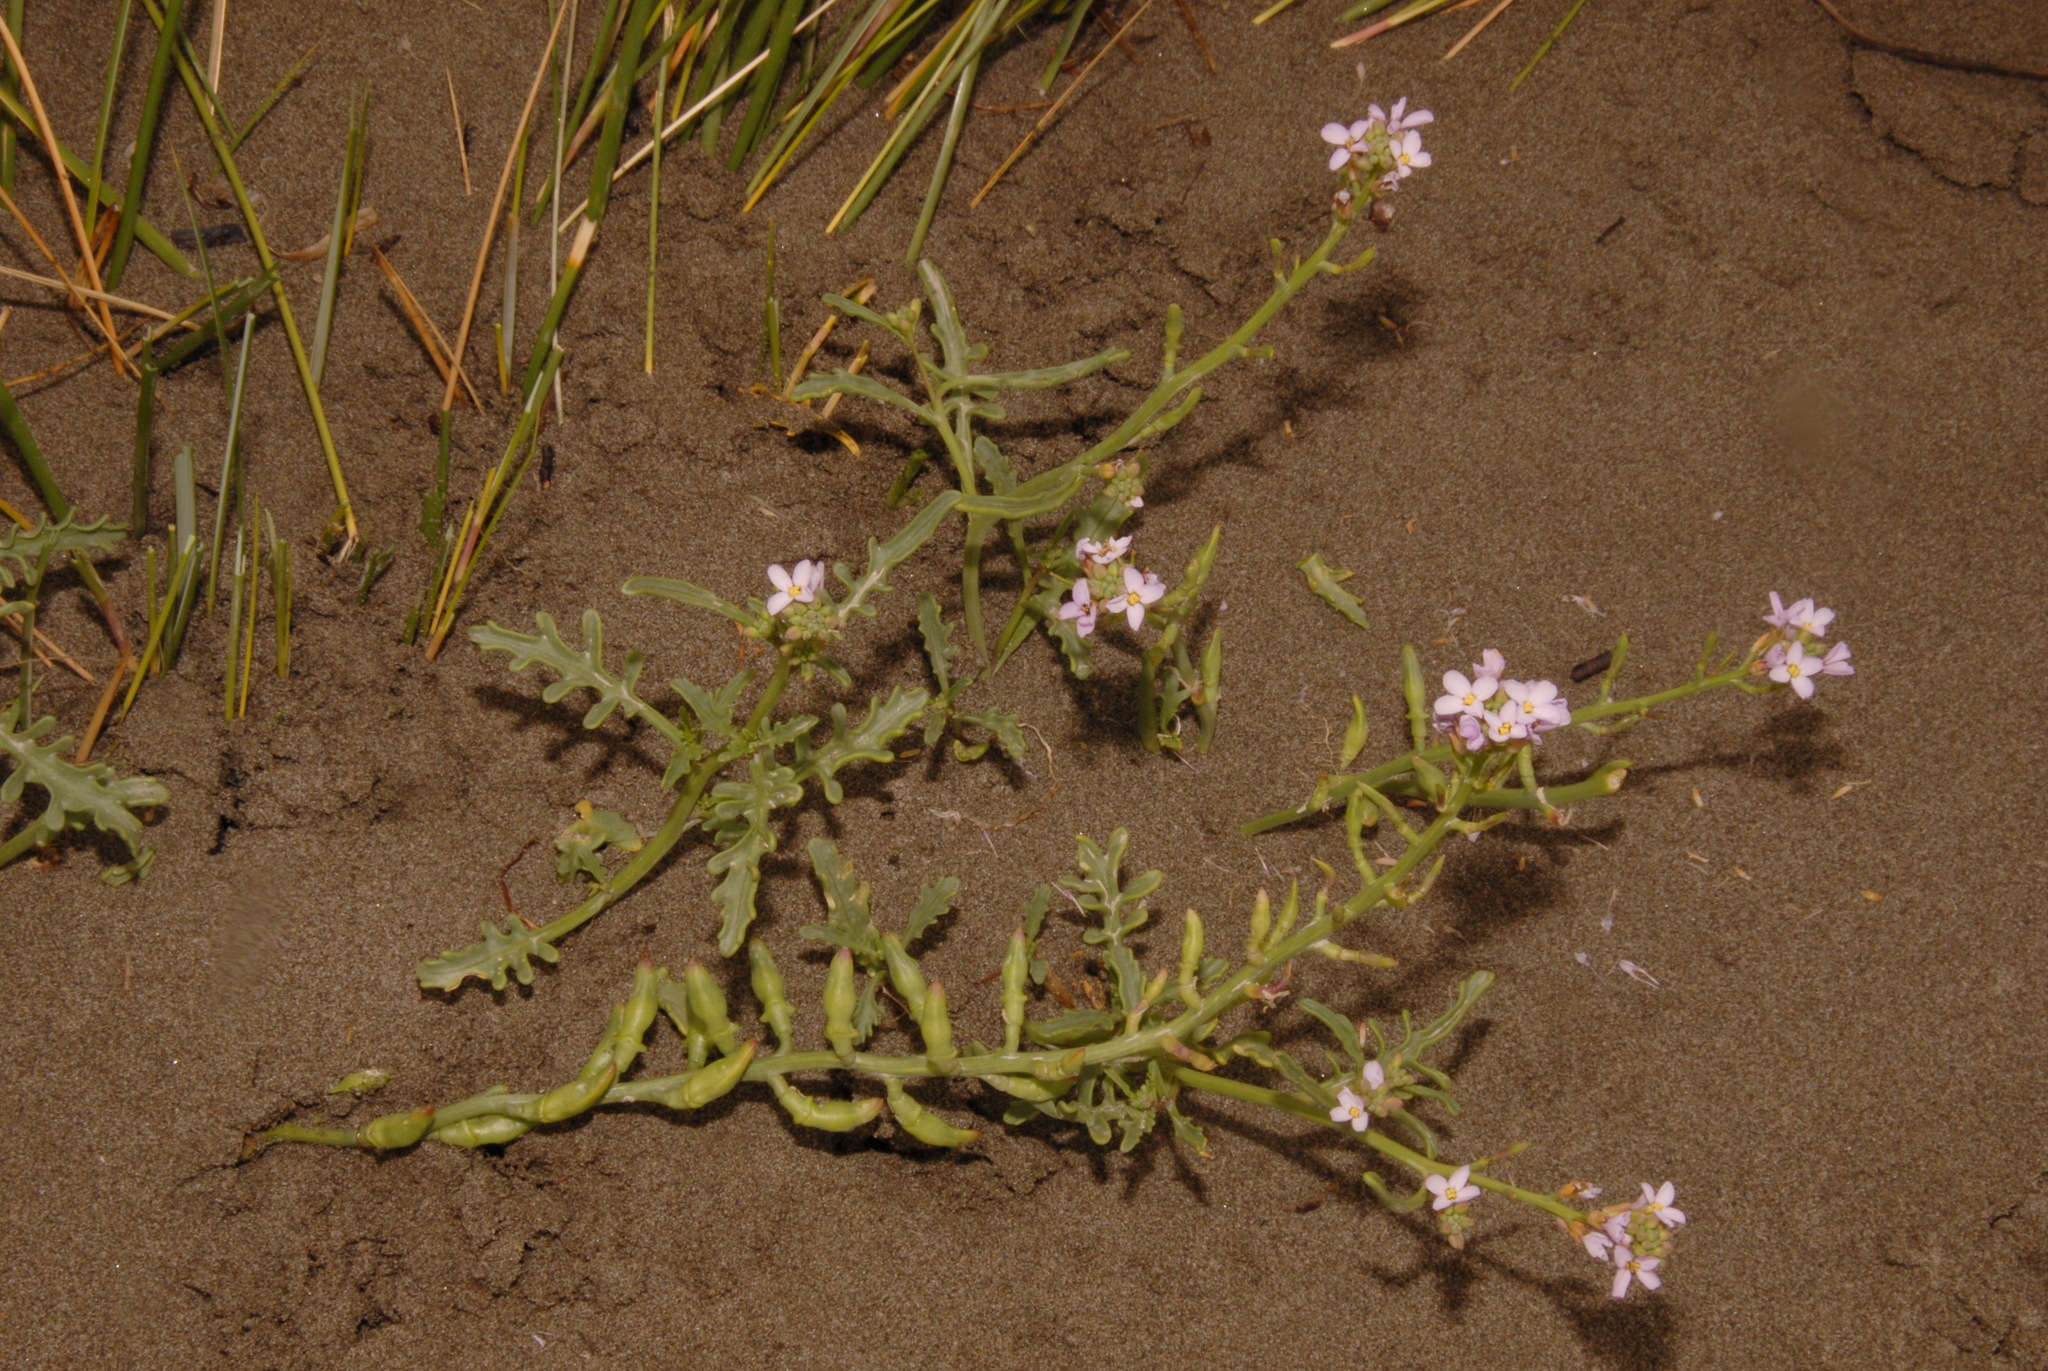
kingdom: Plantae
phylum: Tracheophyta
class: Magnoliopsida
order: Brassicales
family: Brassicaceae
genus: Cakile
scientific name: Cakile maritima
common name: Sea rocket
